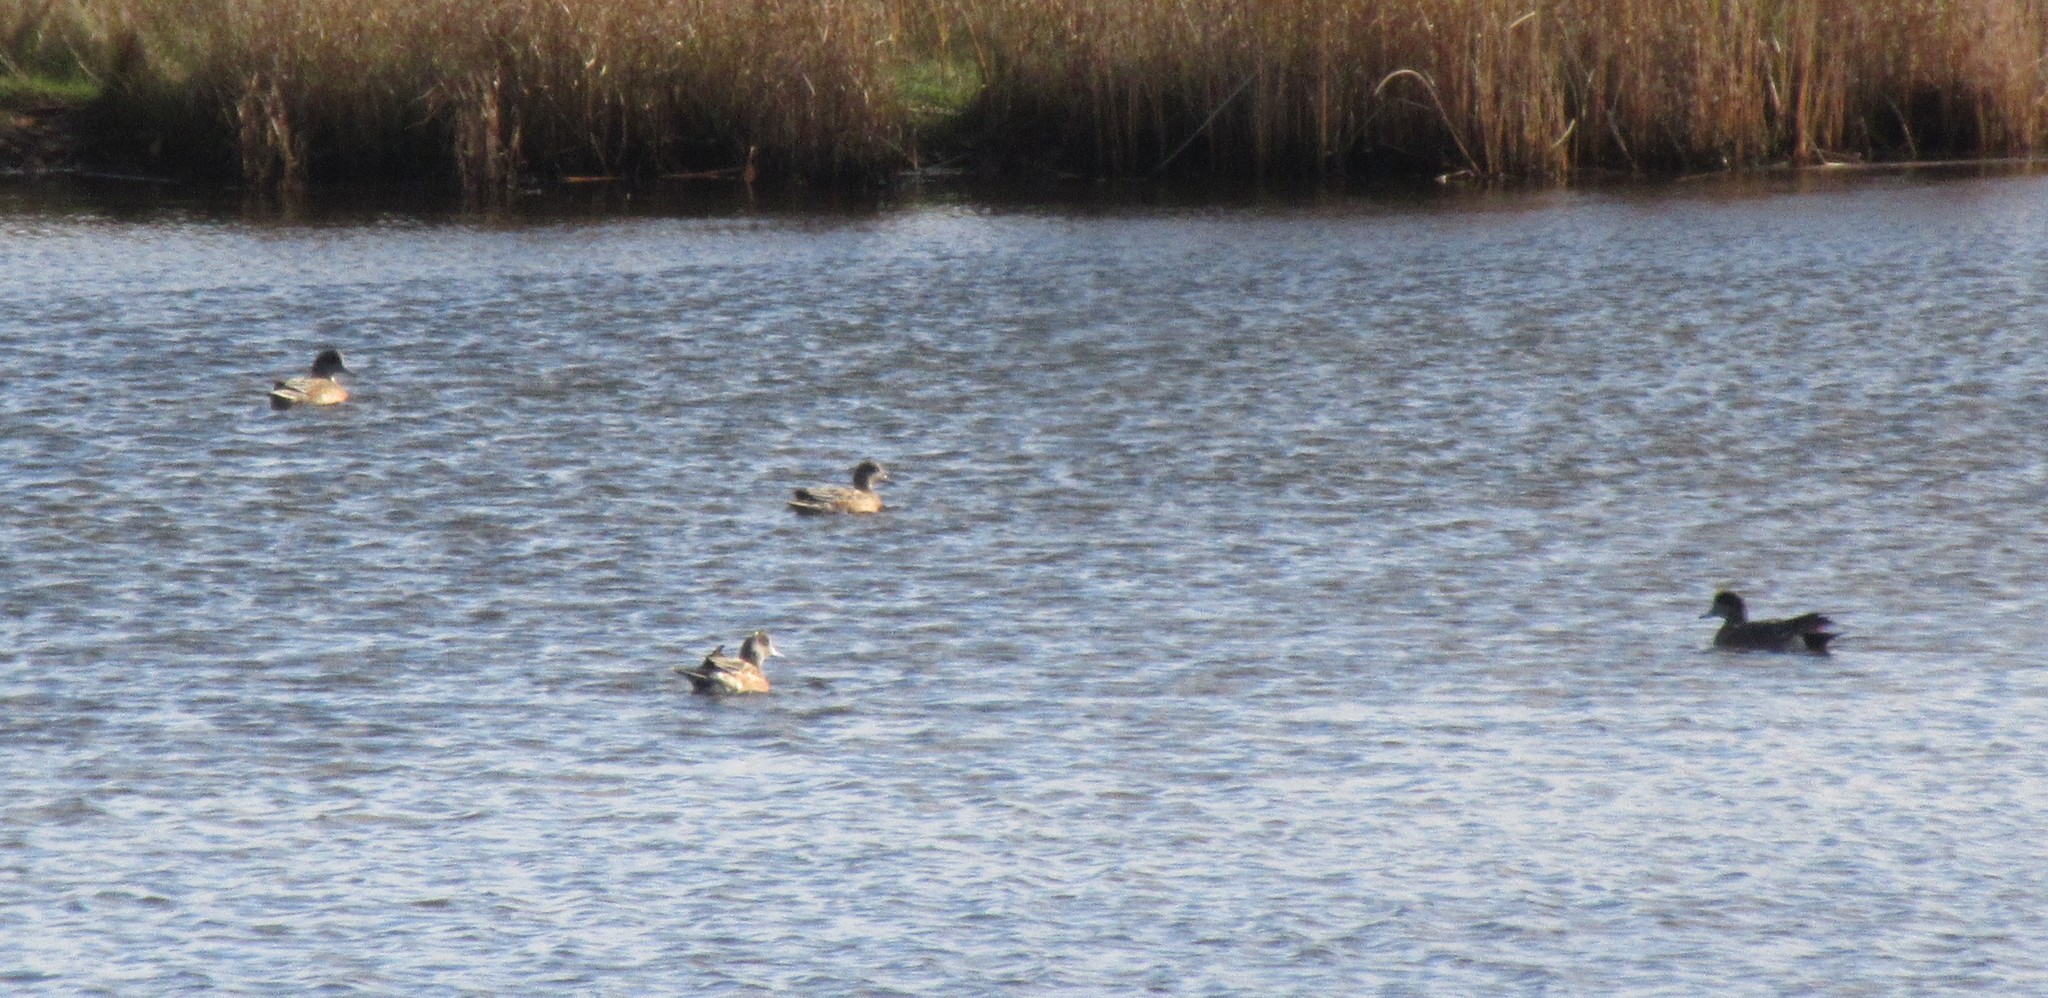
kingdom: Animalia
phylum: Chordata
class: Aves
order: Anseriformes
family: Anatidae
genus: Mareca
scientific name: Mareca americana
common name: American wigeon
